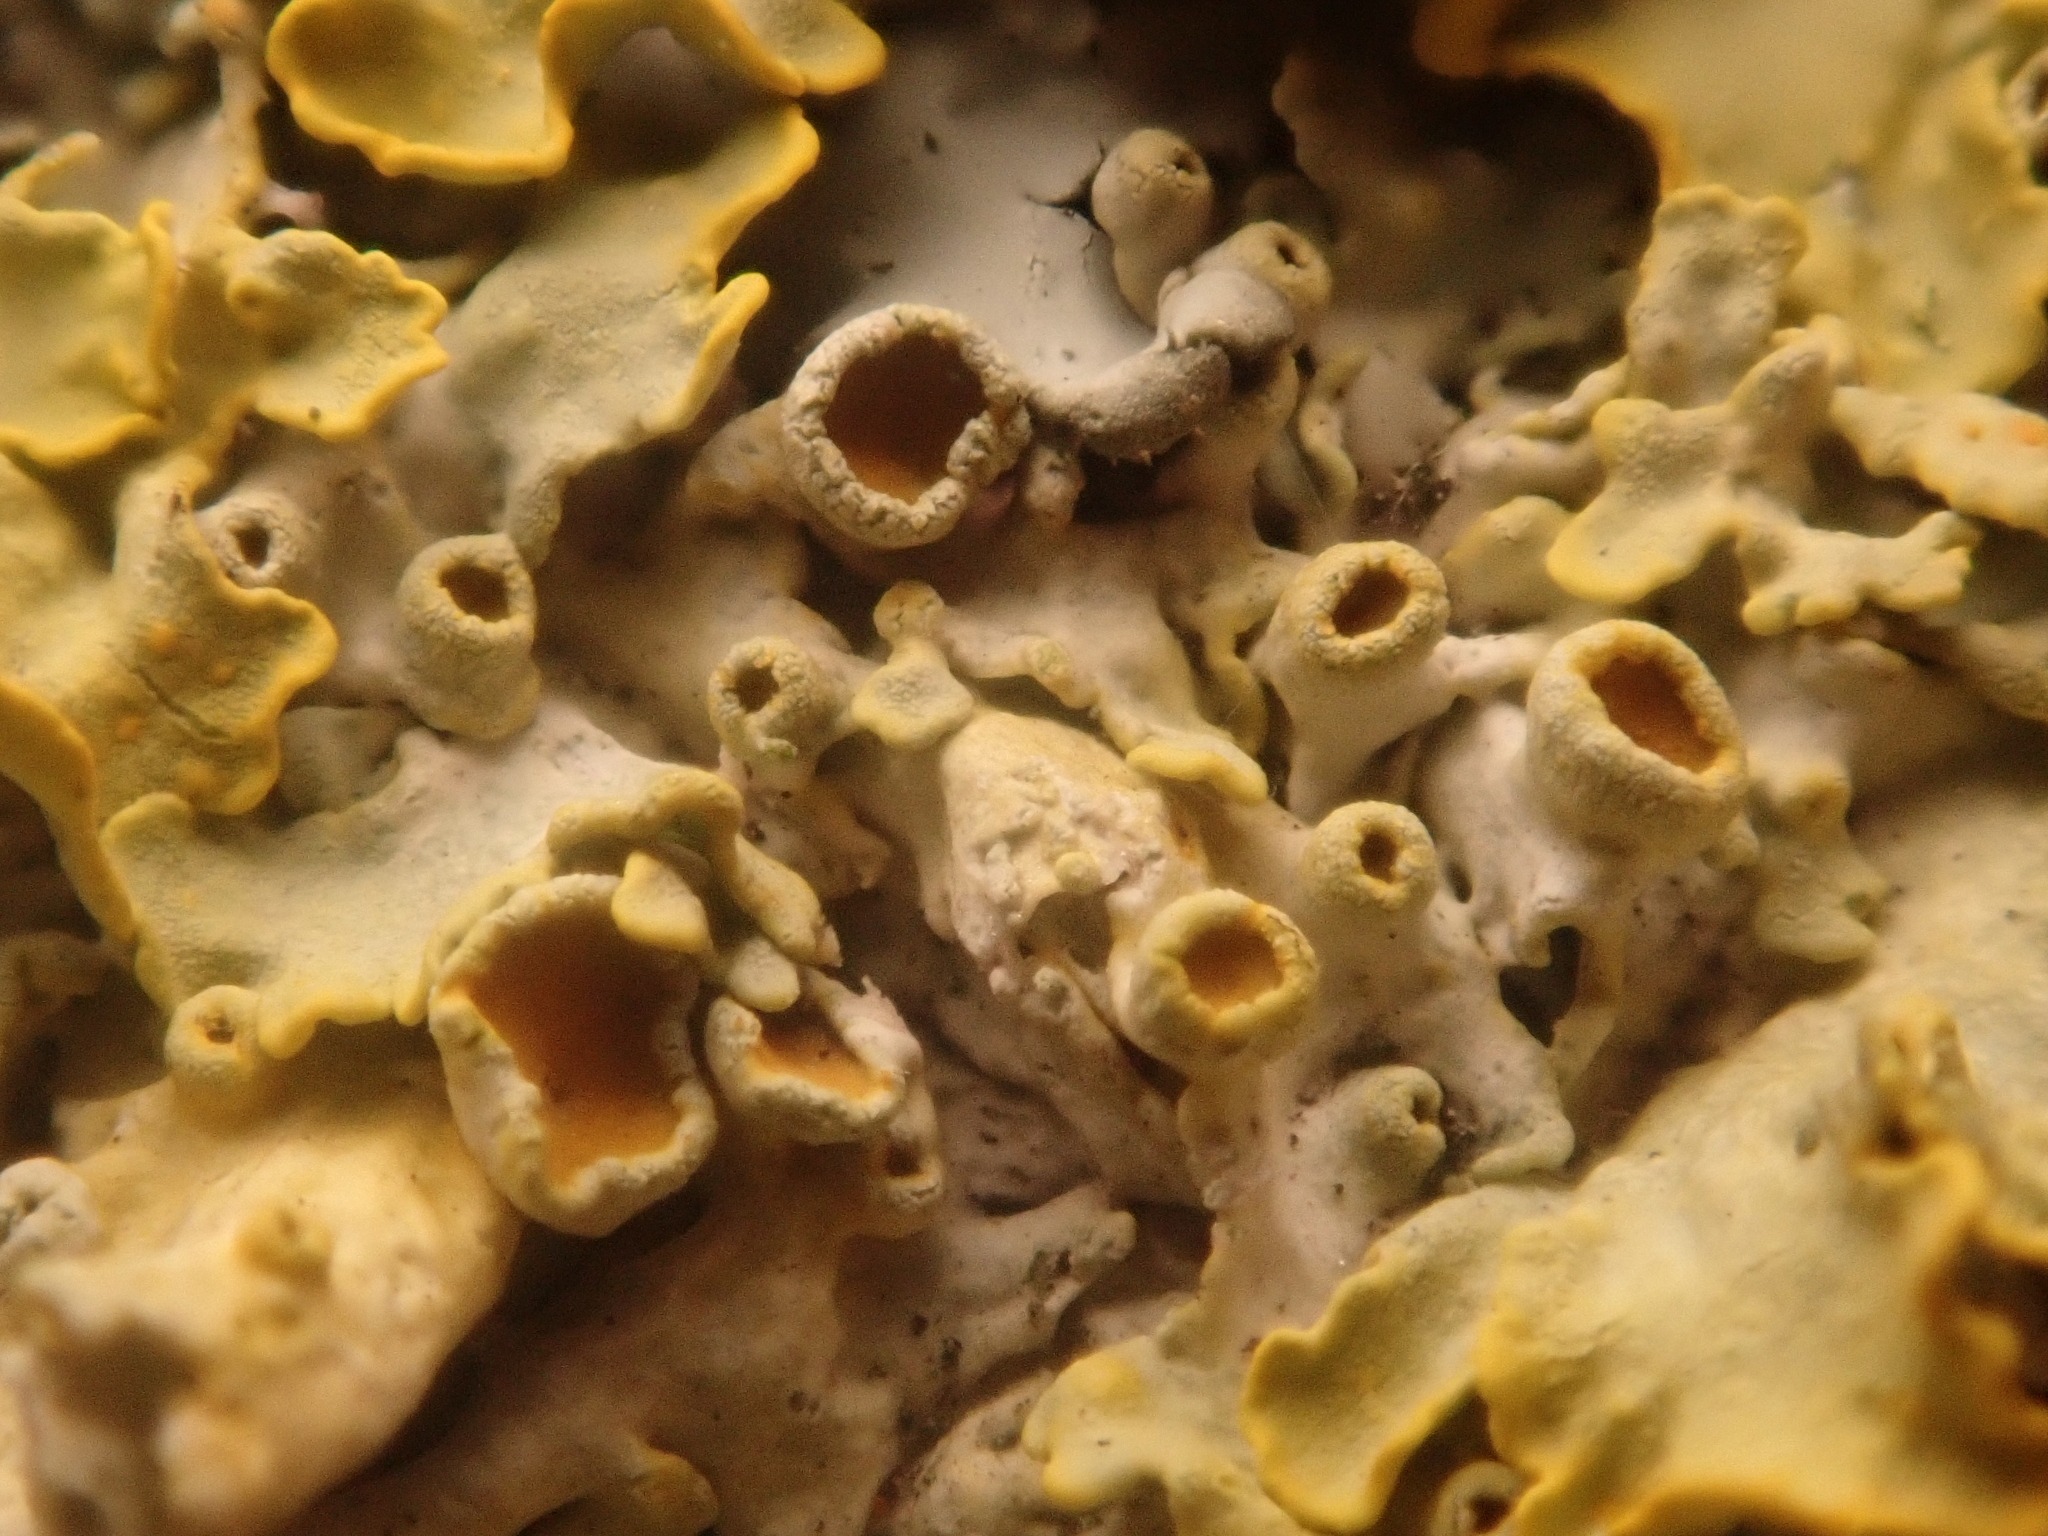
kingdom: Fungi
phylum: Ascomycota
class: Lecanoromycetes
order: Teloschistales
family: Teloschistaceae
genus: Xanthoria
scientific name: Xanthoria parietina
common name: Common orange lichen
